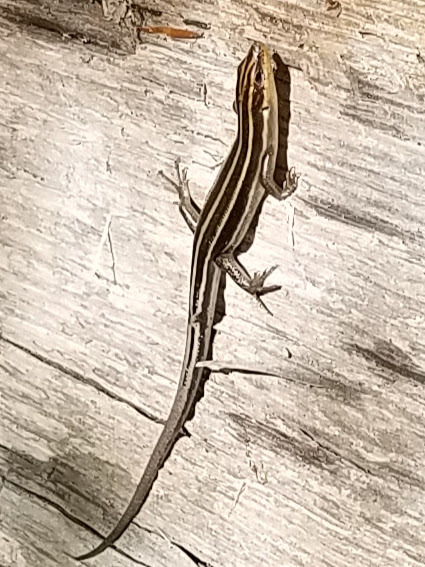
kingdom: Animalia
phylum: Chordata
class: Squamata
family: Scincidae
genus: Plestiodon
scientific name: Plestiodon
